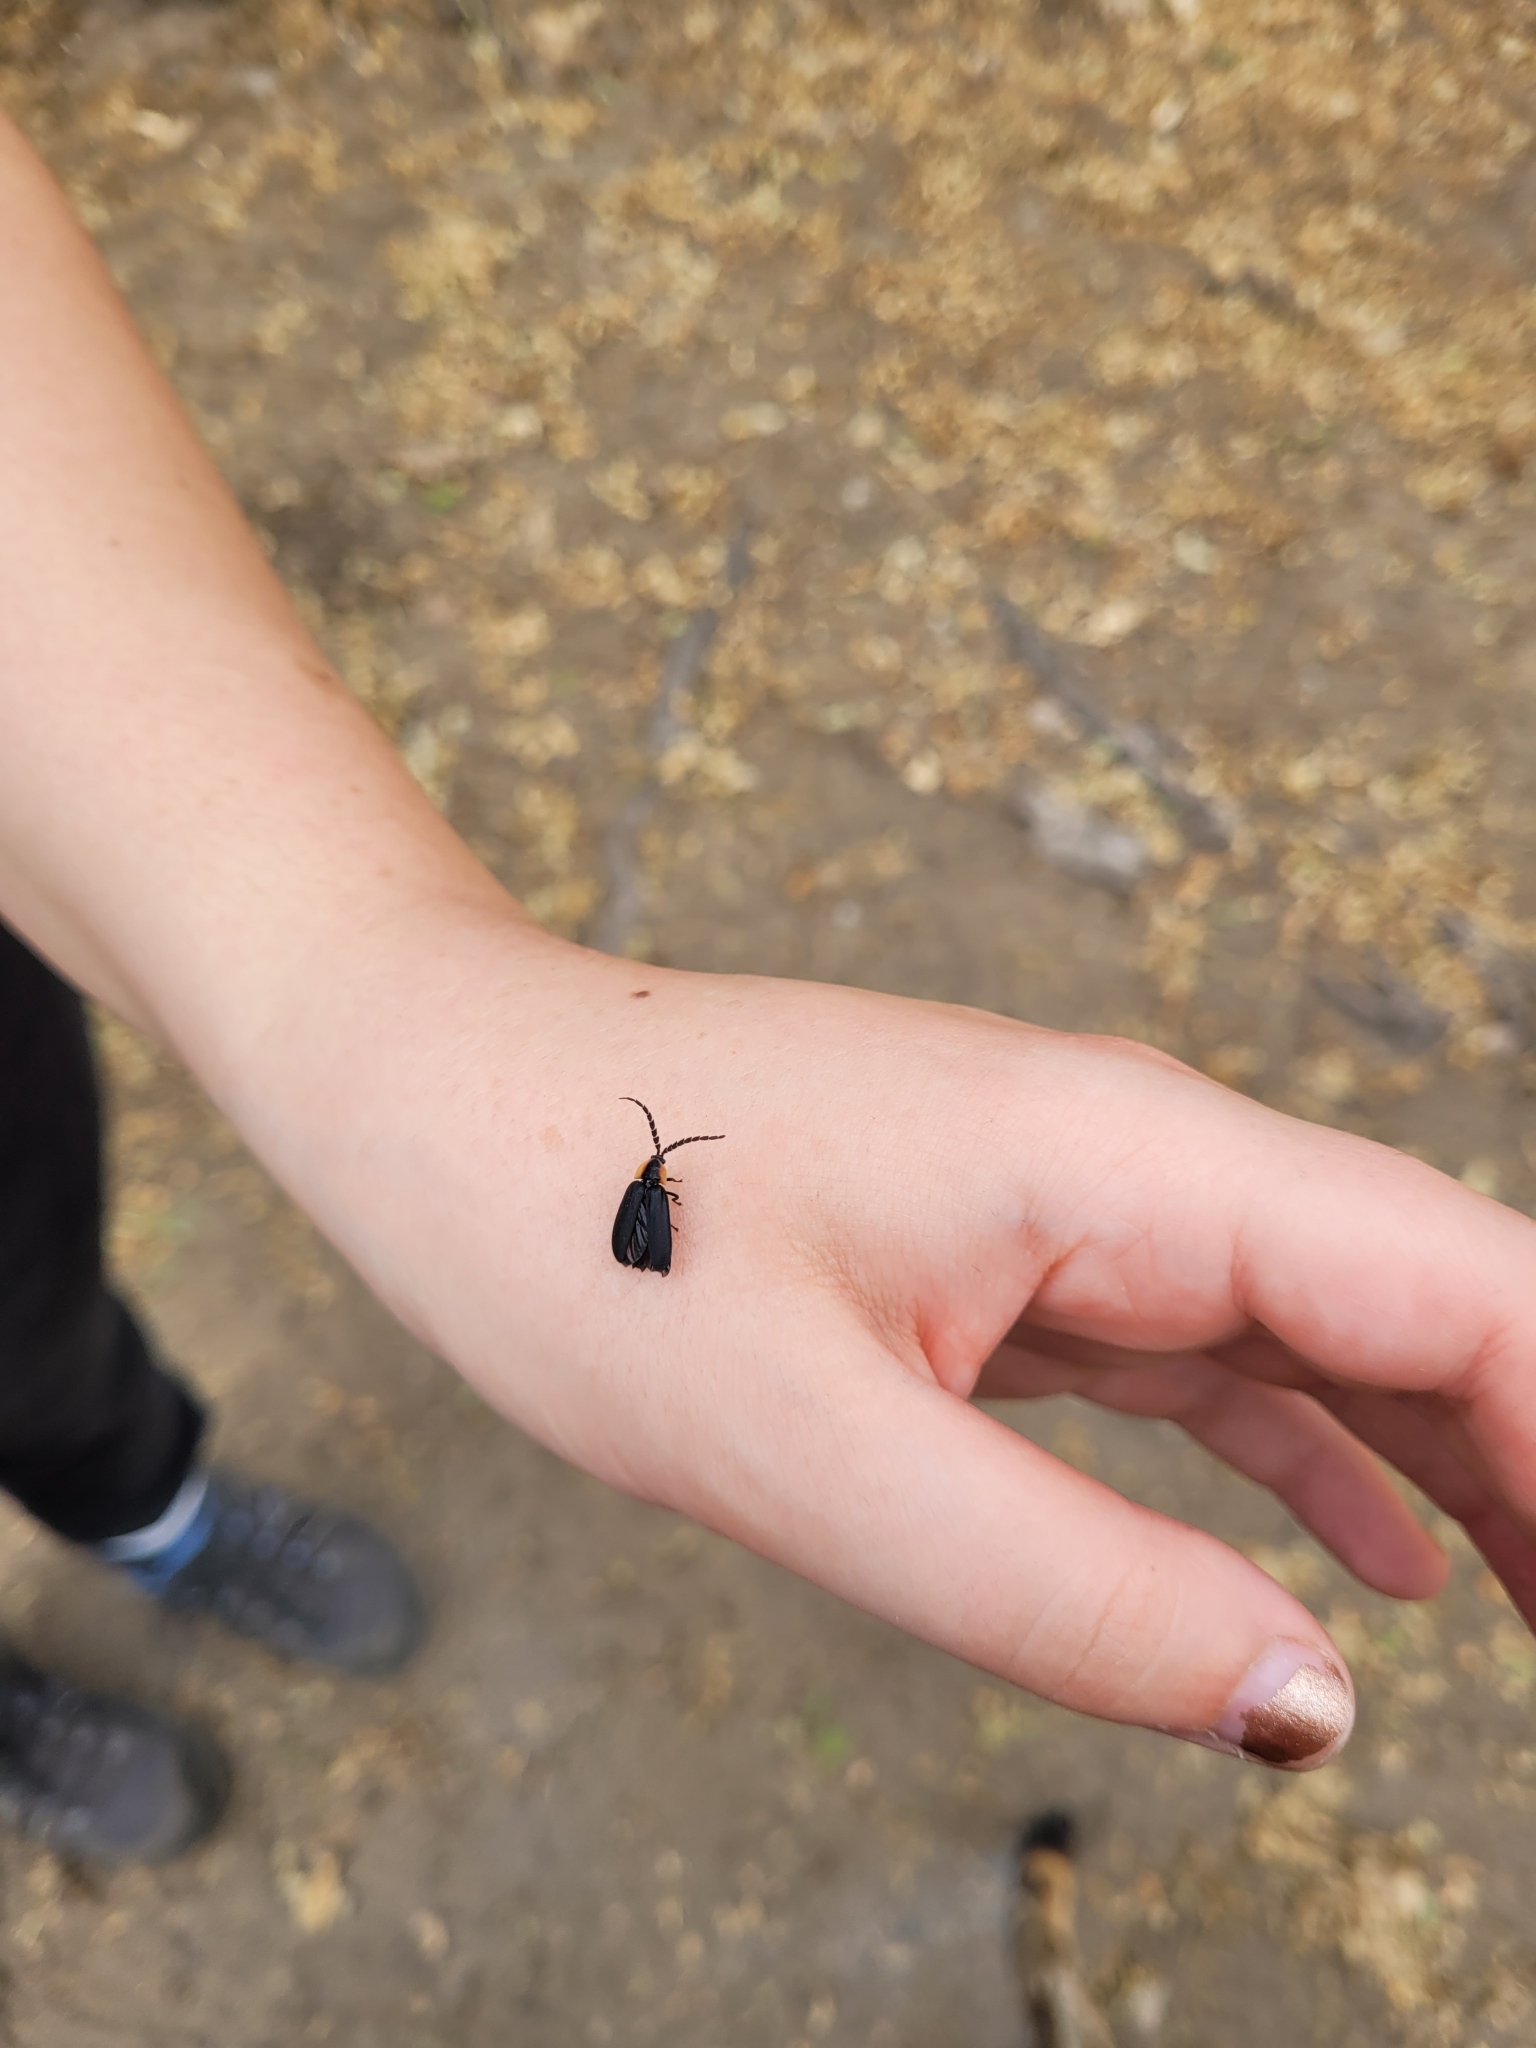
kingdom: Animalia
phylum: Arthropoda
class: Insecta
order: Coleoptera
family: Lampyridae
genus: Lucidota
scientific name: Lucidota atra
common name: Black firefly
